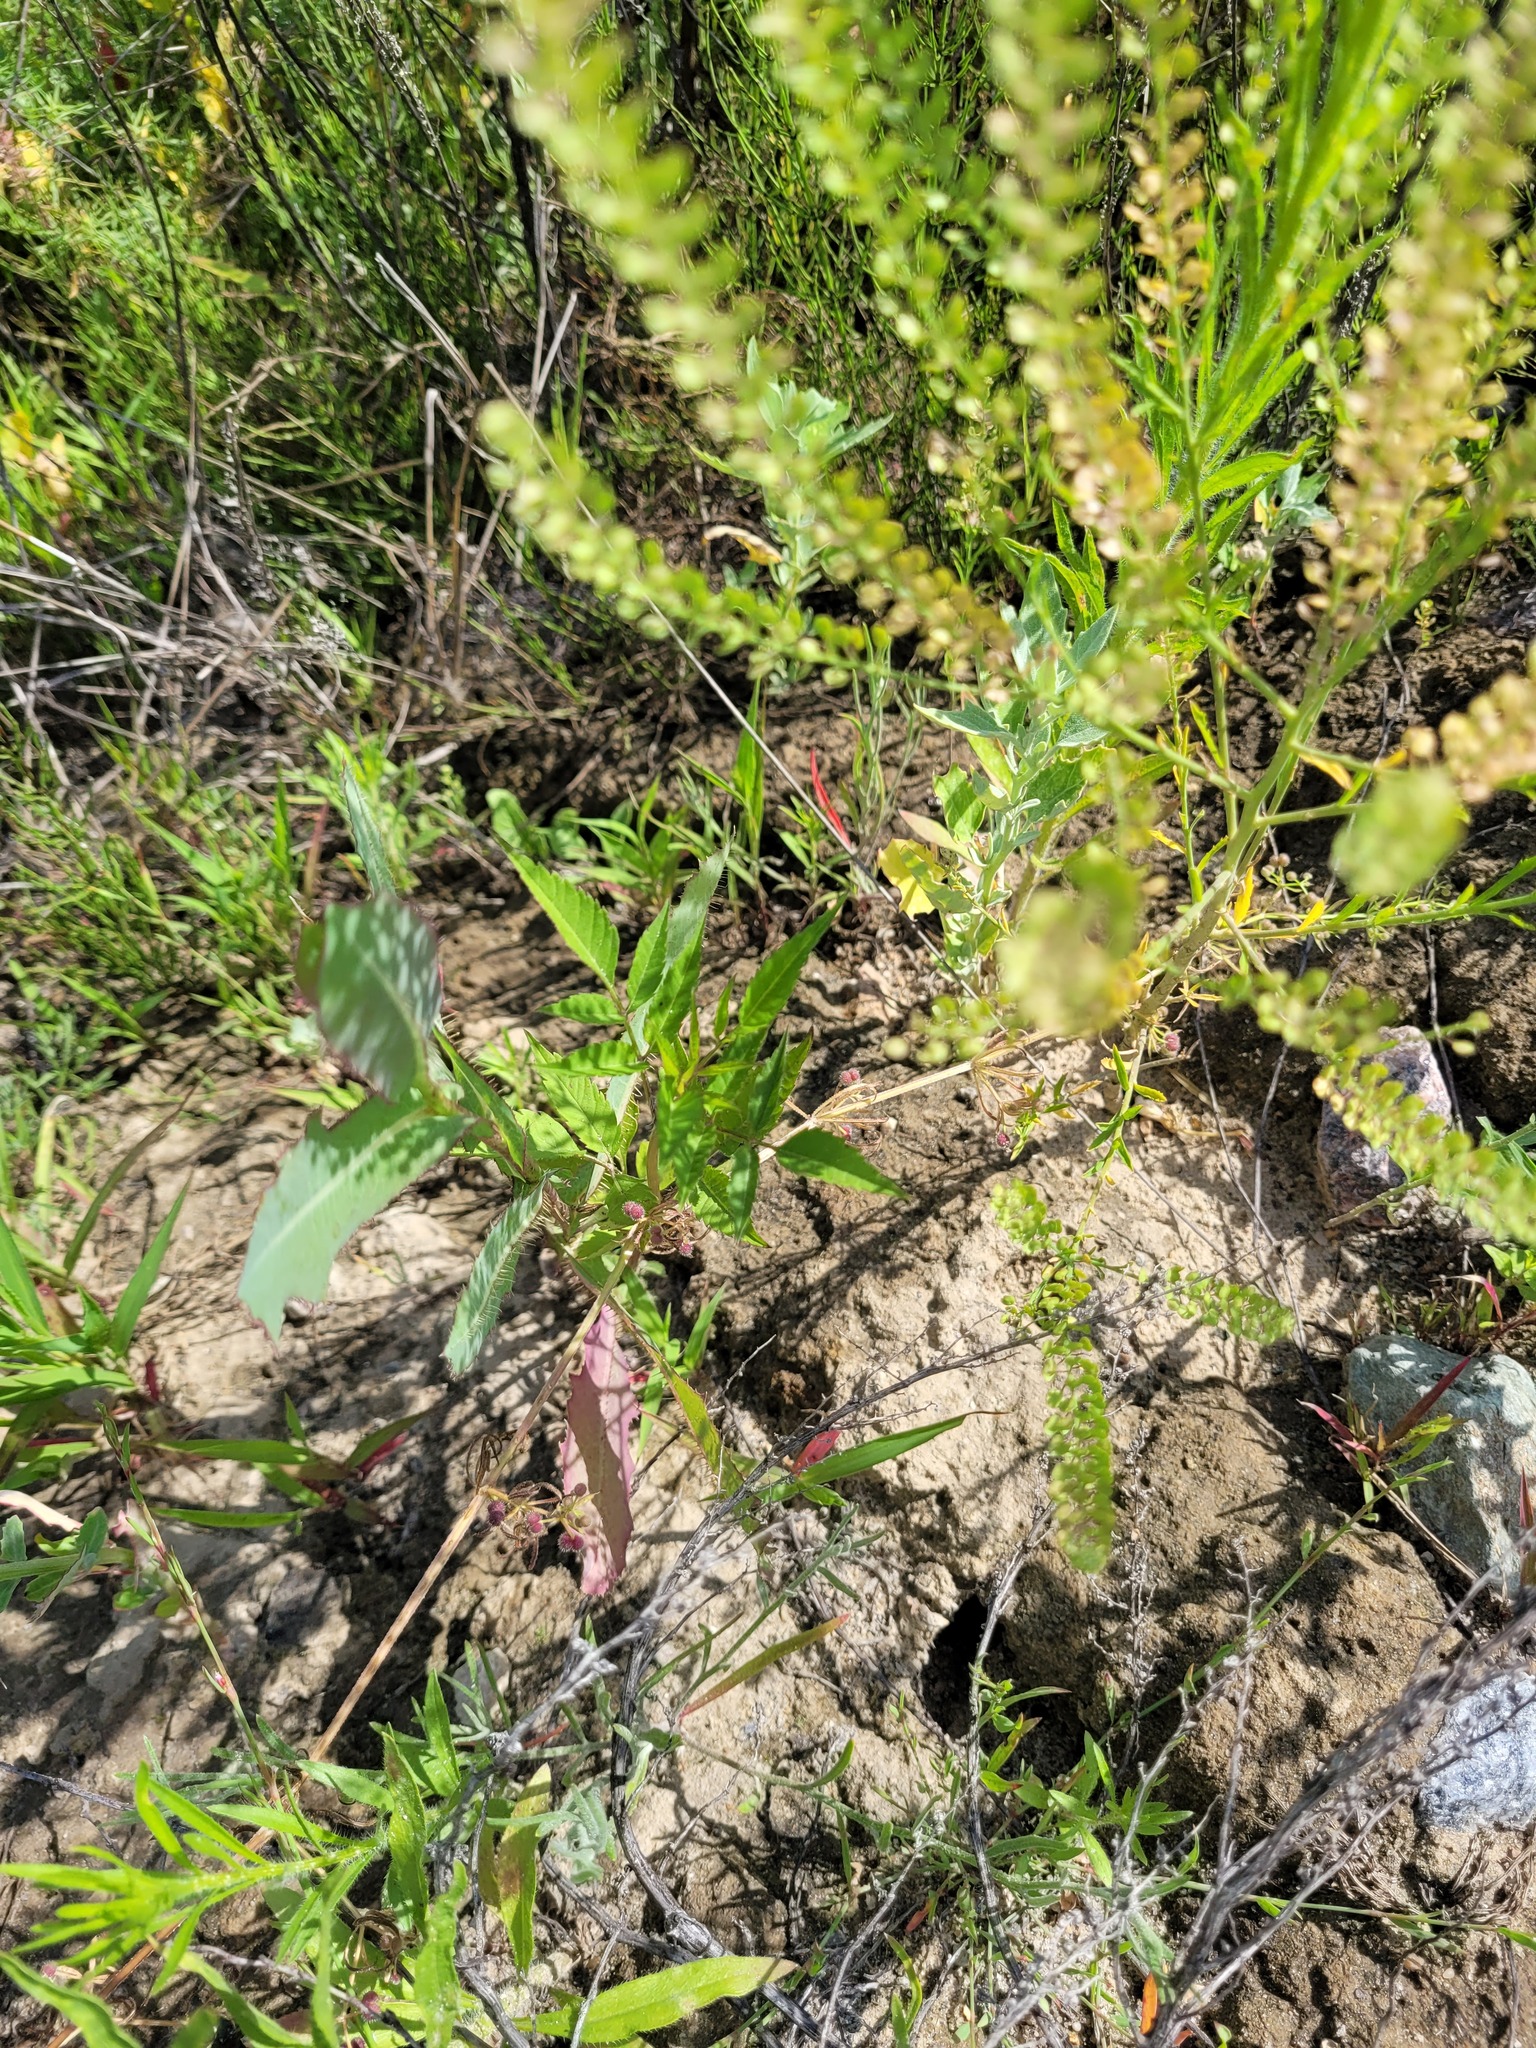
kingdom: Plantae
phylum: Tracheophyta
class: Magnoliopsida
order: Asterales
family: Asteraceae
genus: Bidens
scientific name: Bidens frondosa
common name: Beggarticks
